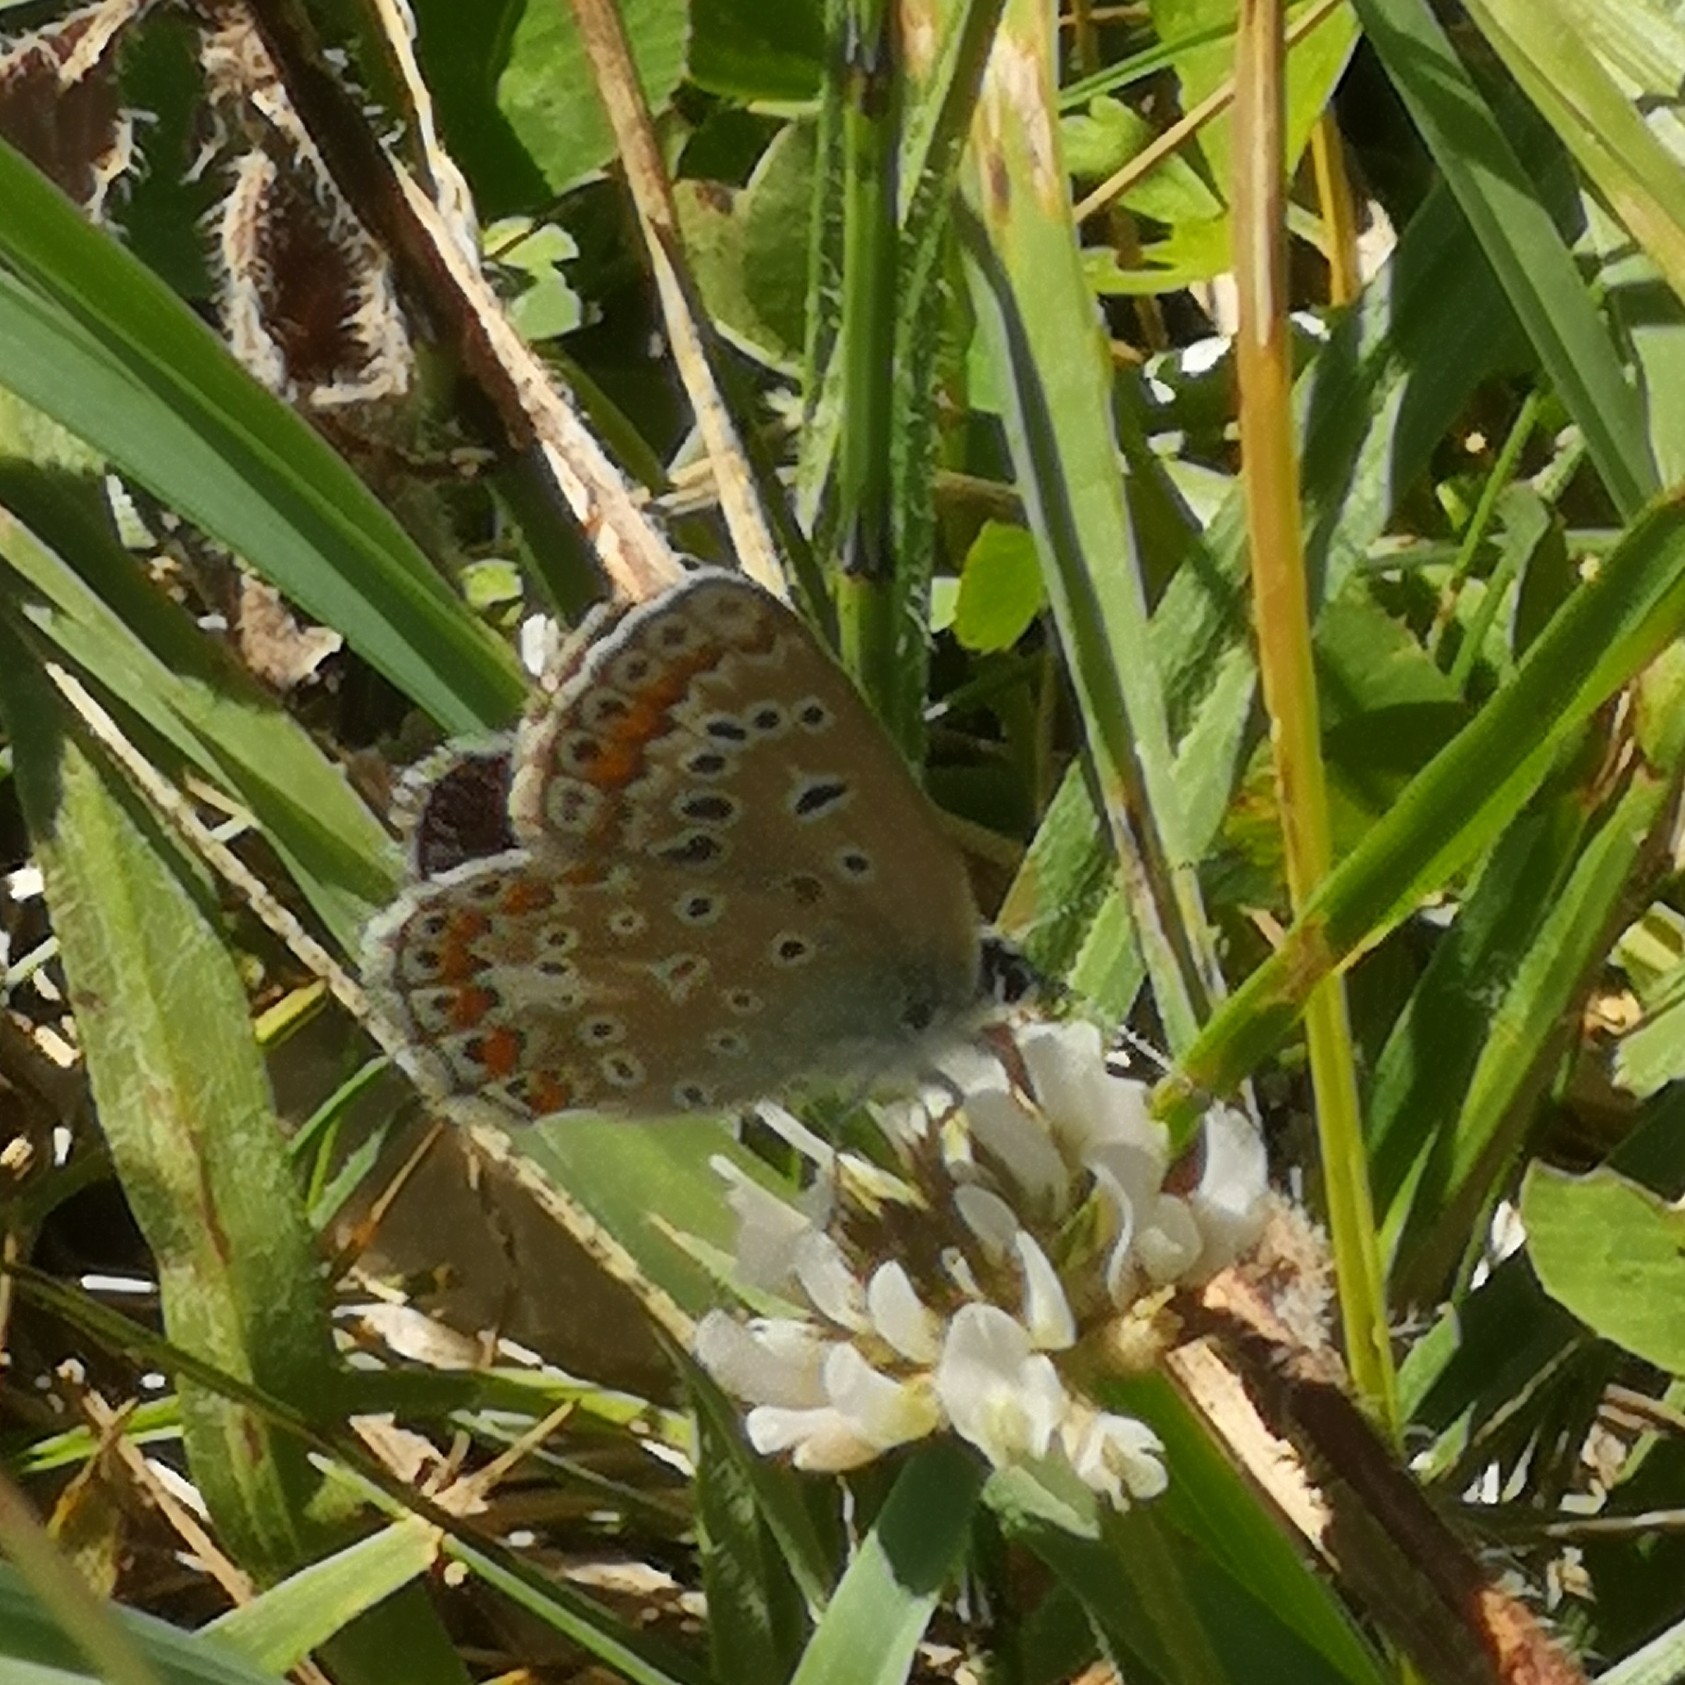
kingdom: Animalia
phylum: Arthropoda
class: Insecta
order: Lepidoptera
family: Lycaenidae
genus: Polyommatus
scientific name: Polyommatus icarus
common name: Common blue
